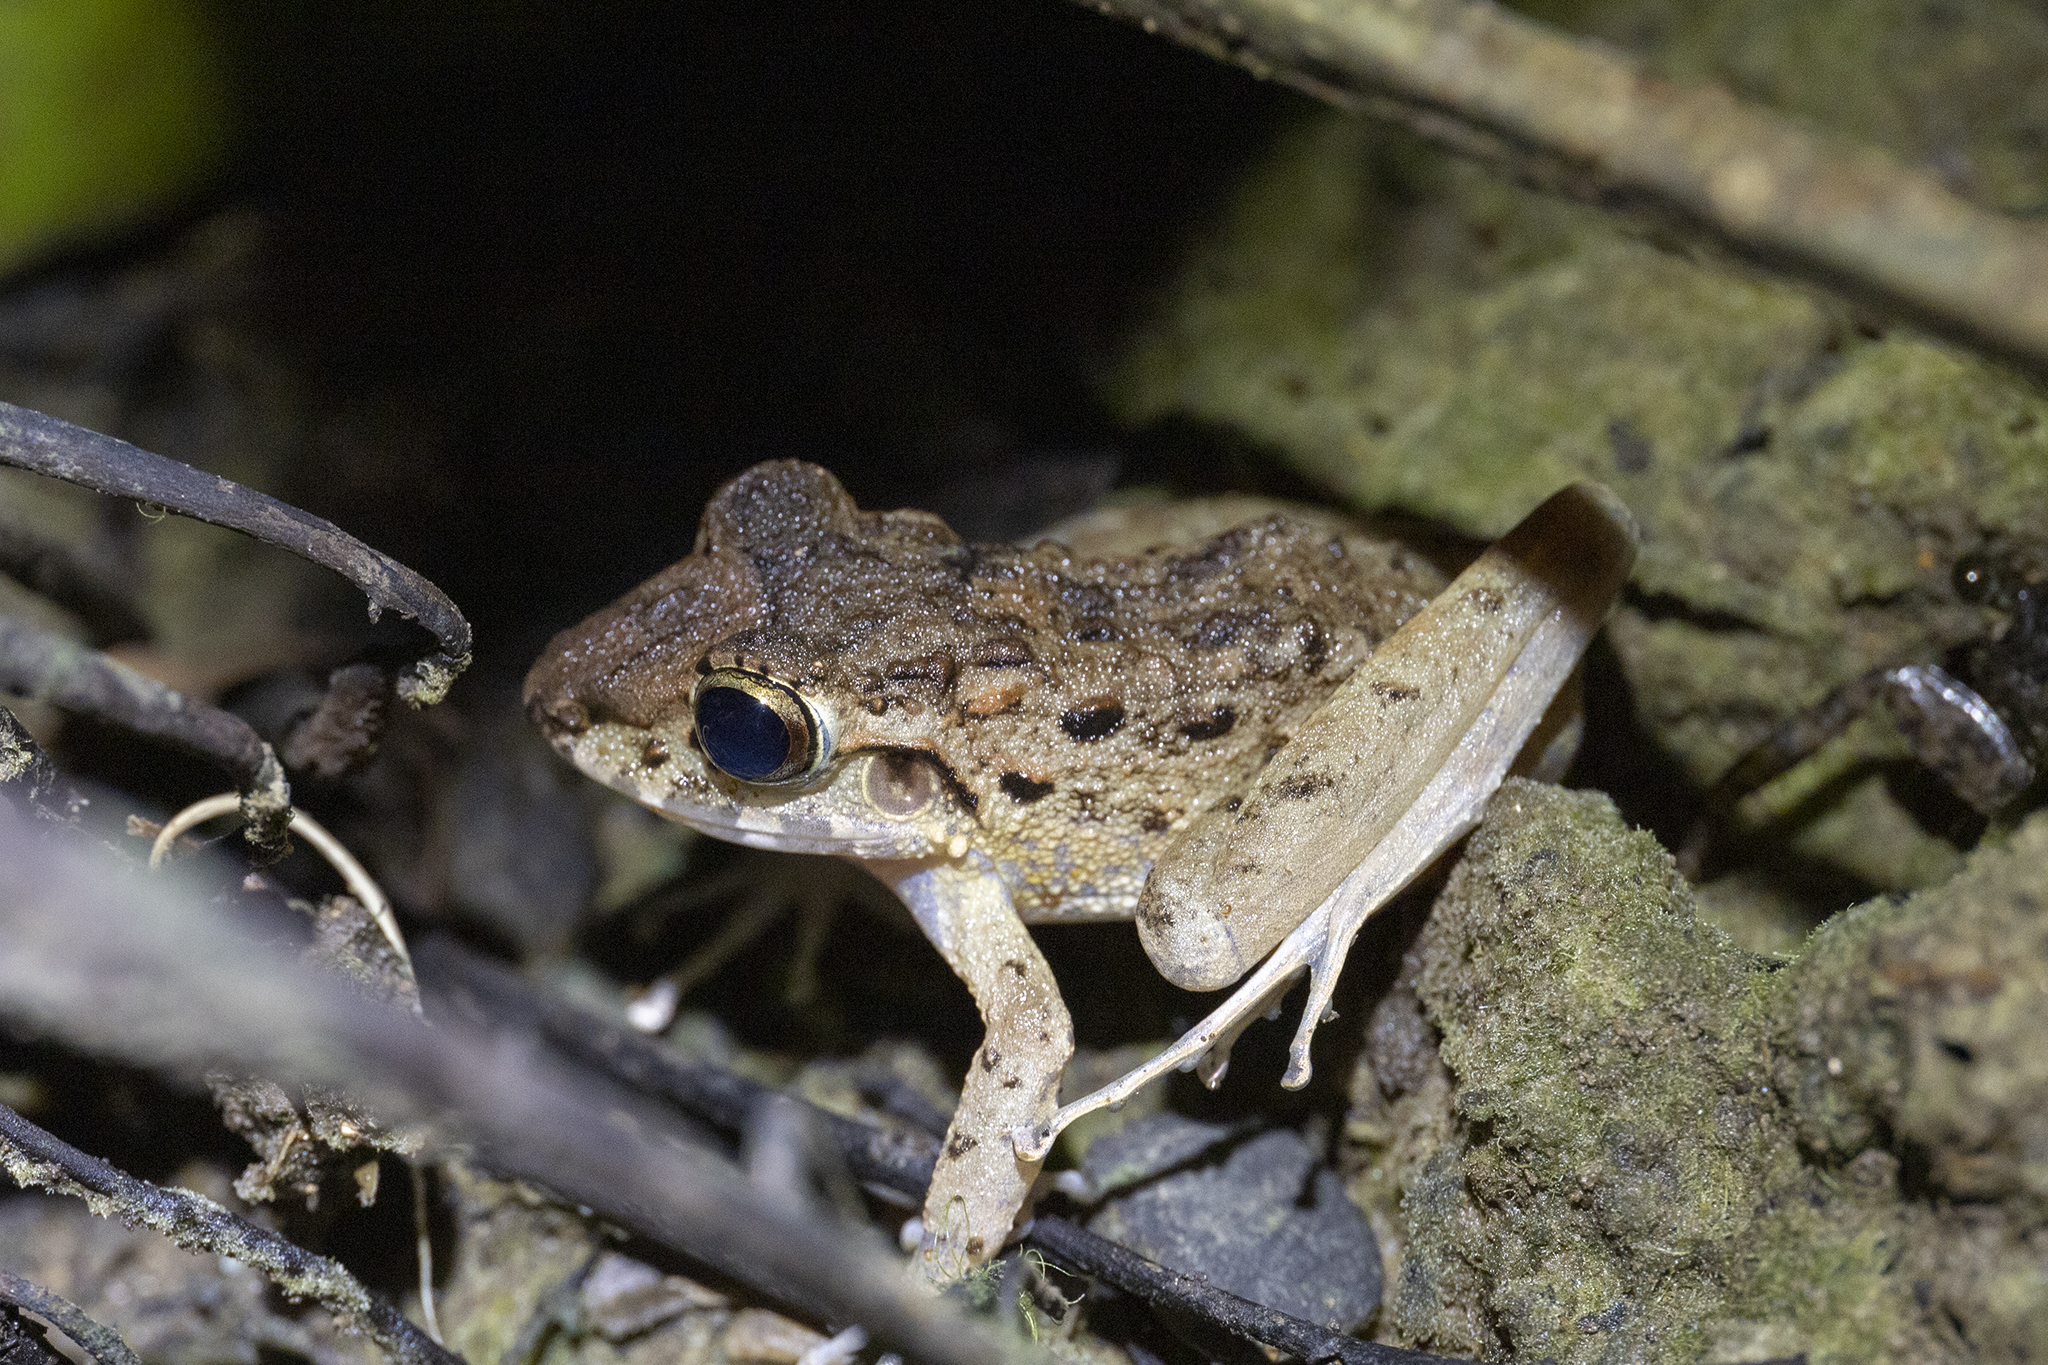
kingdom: Animalia
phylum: Chordata
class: Amphibia
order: Anura
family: Craugastoridae
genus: Craugastor
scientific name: Craugastor fitzingeri
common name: Fitzinger's robber frog
